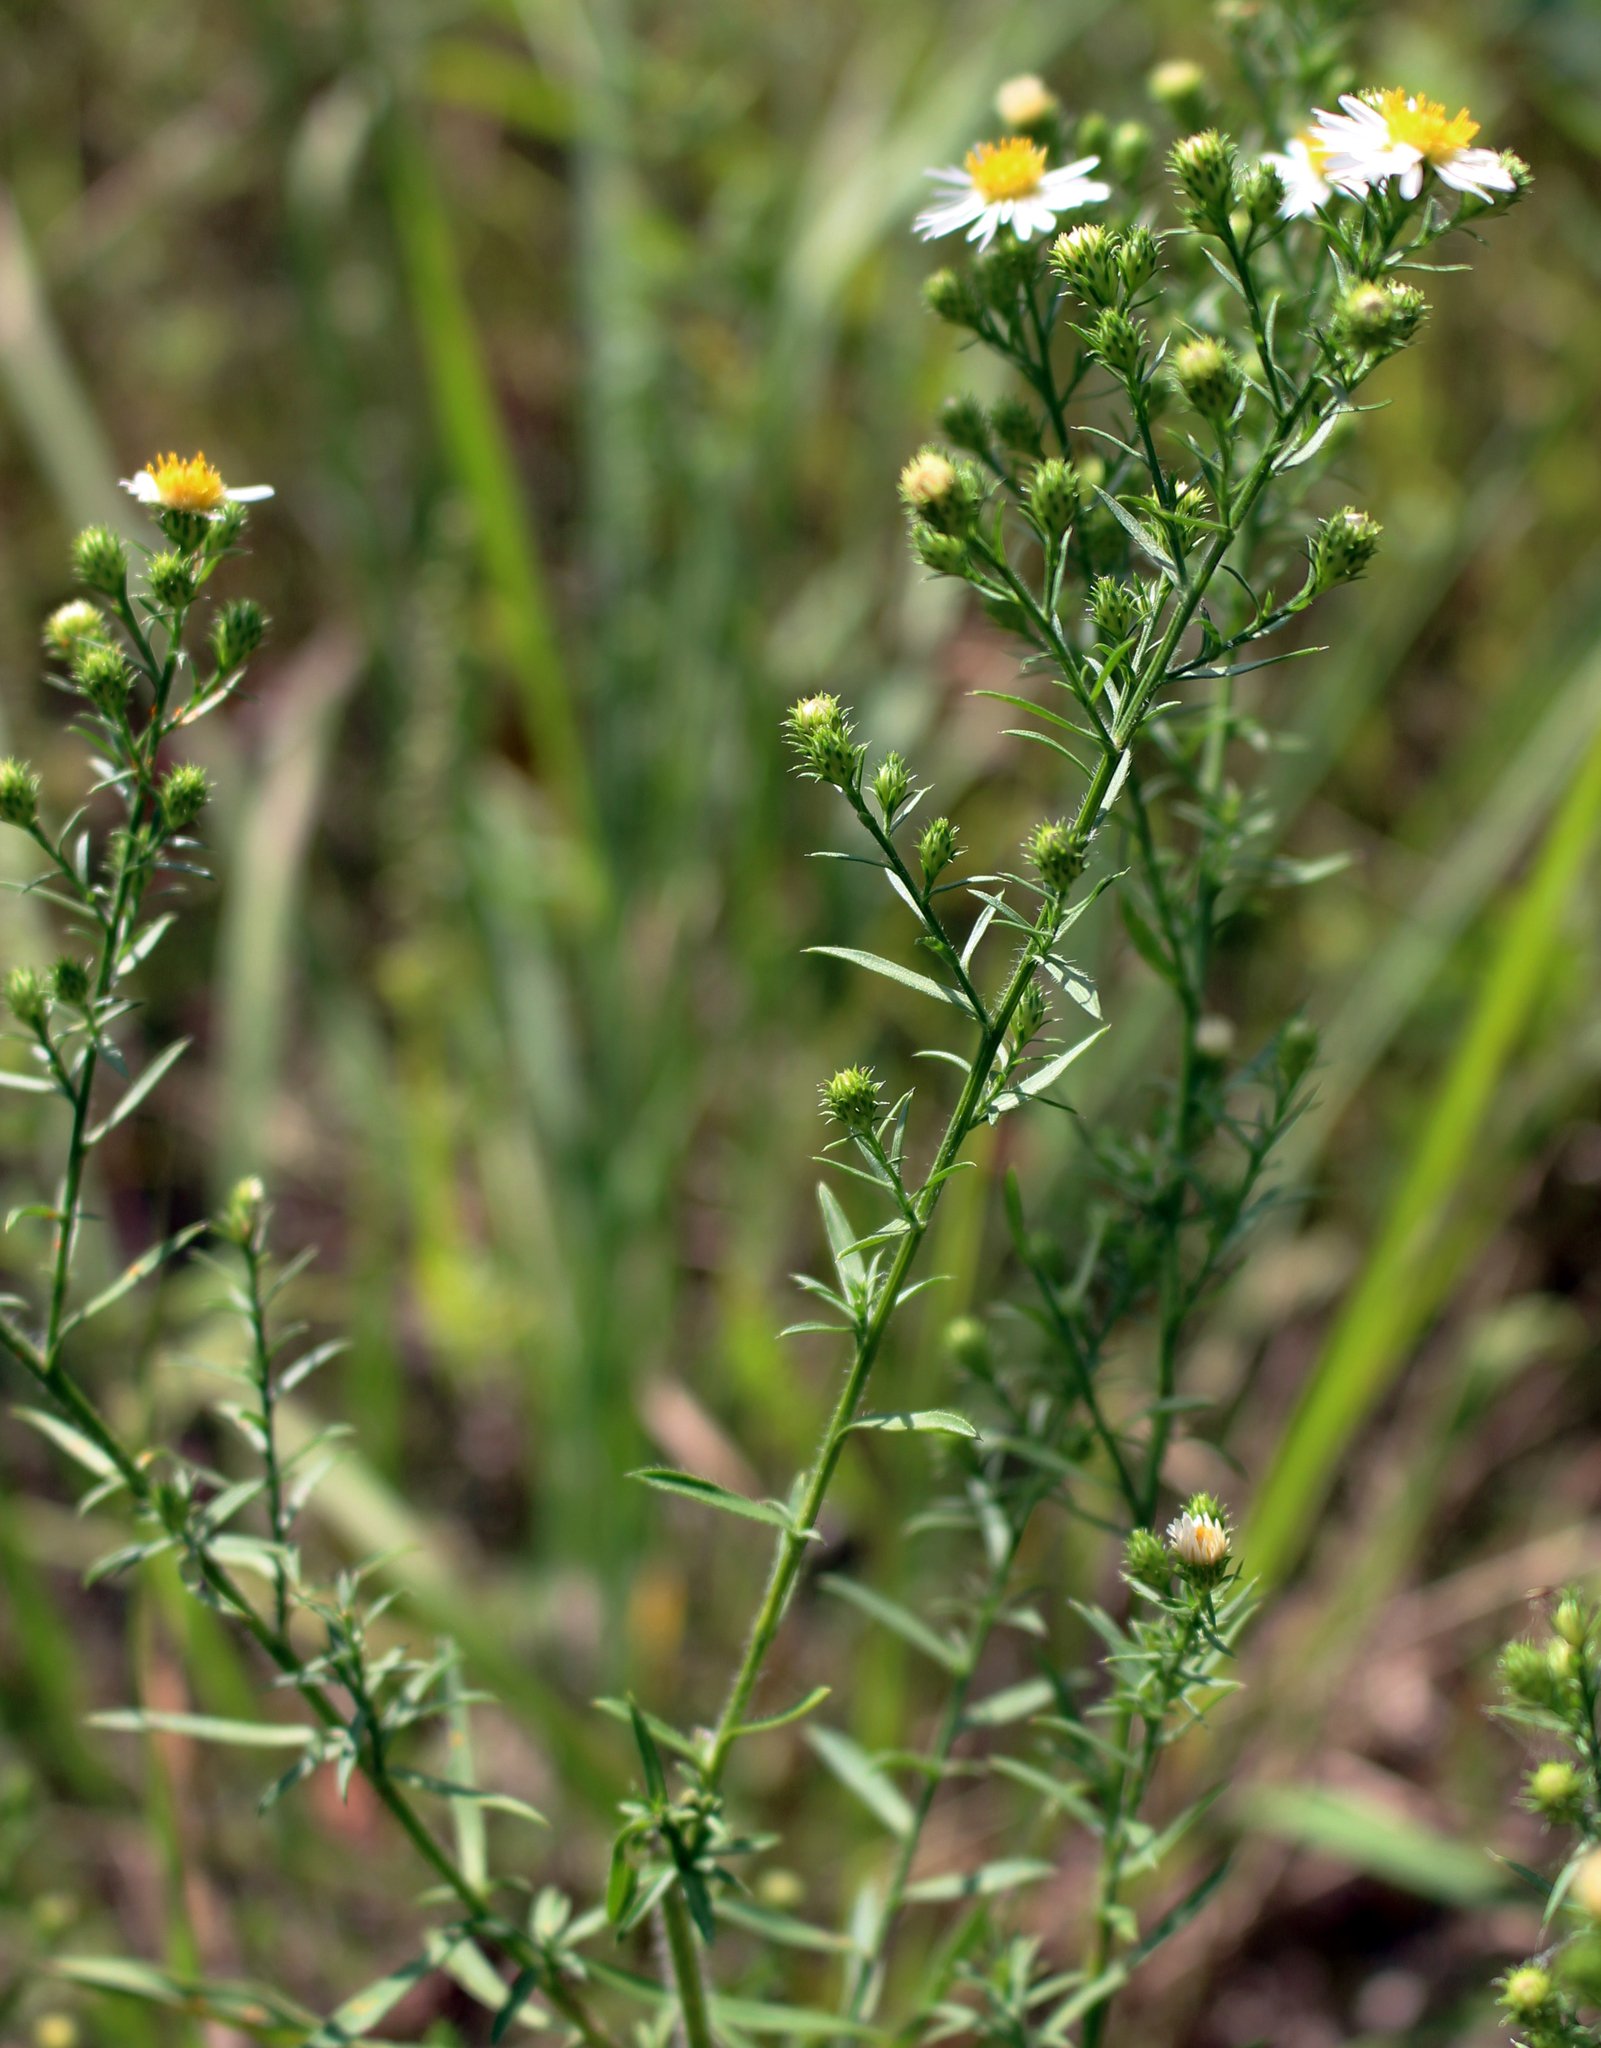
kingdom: Plantae
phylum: Tracheophyta
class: Magnoliopsida
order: Asterales
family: Asteraceae
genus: Symphyotrichum
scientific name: Symphyotrichum pilosum
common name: Awl aster
